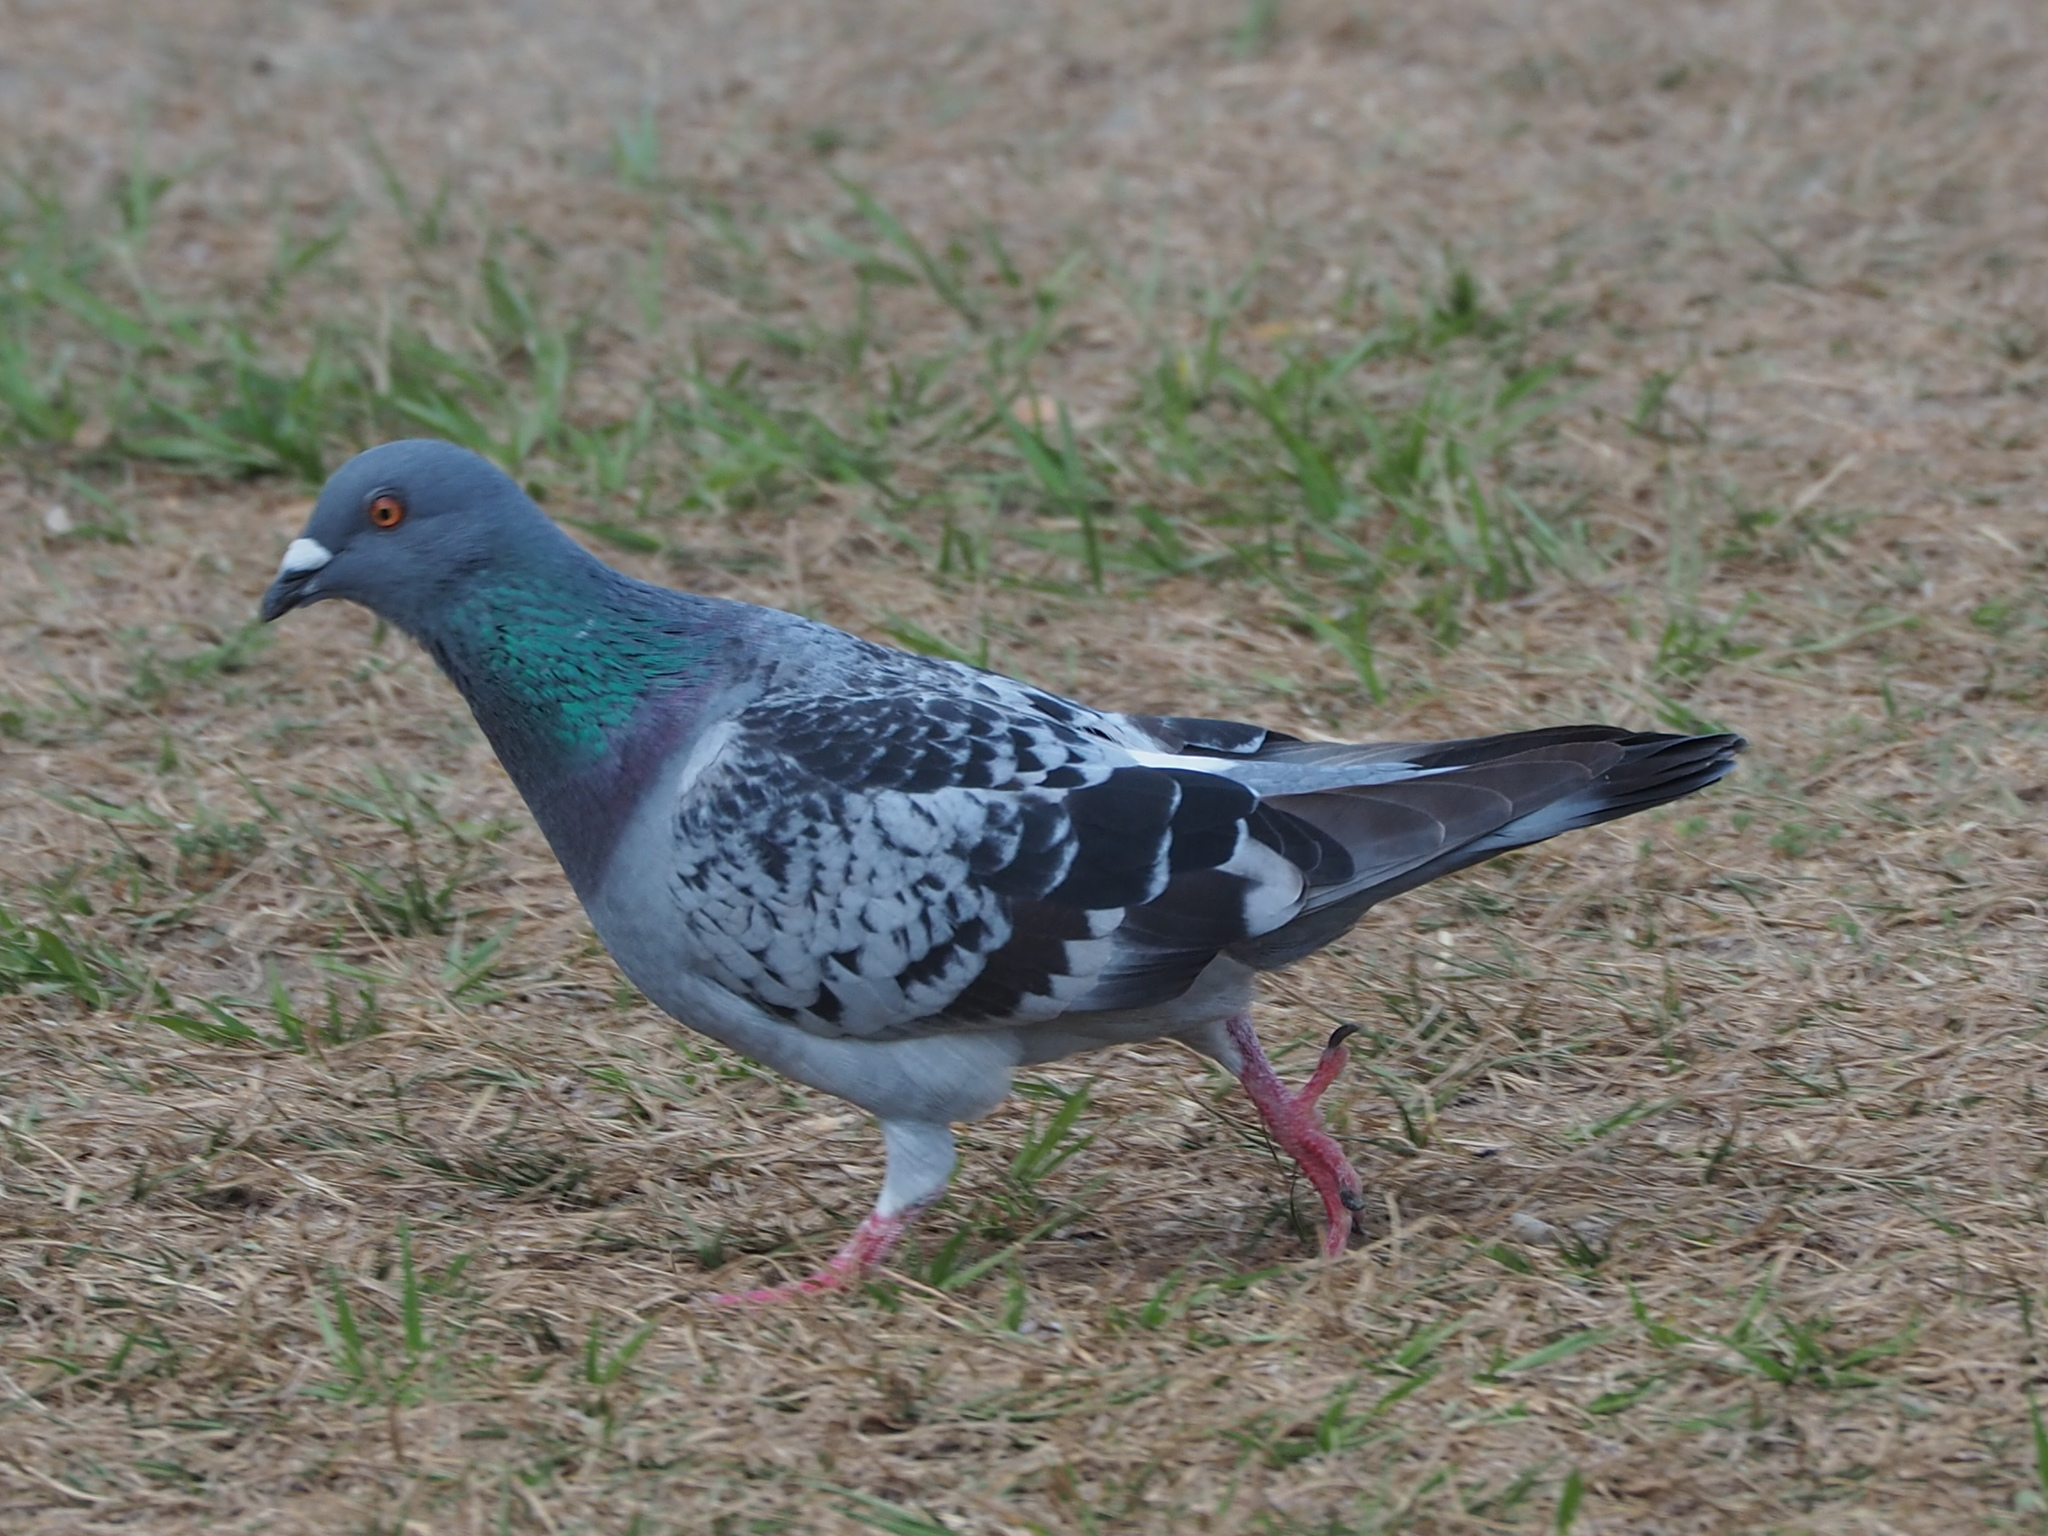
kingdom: Animalia
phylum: Chordata
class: Aves
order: Columbiformes
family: Columbidae
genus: Columba
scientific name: Columba livia
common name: Rock pigeon
